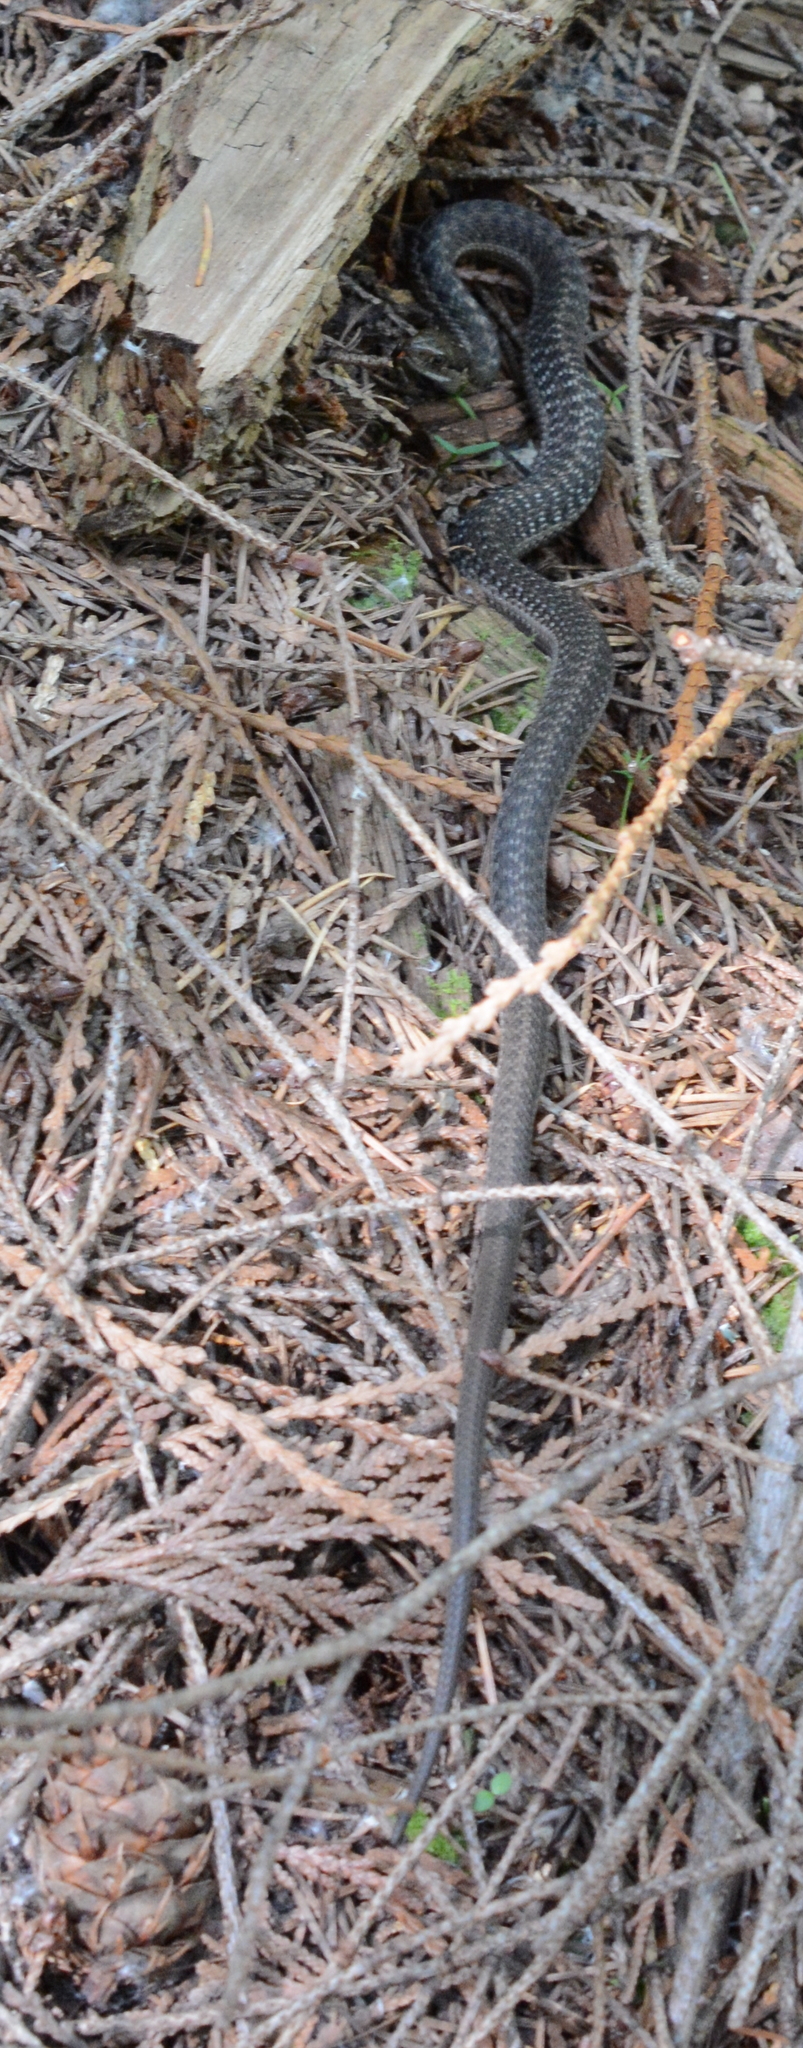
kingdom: Animalia
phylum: Chordata
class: Squamata
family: Colubridae
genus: Thamnophis
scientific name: Thamnophis elegans
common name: Western terrestrial garter snake
